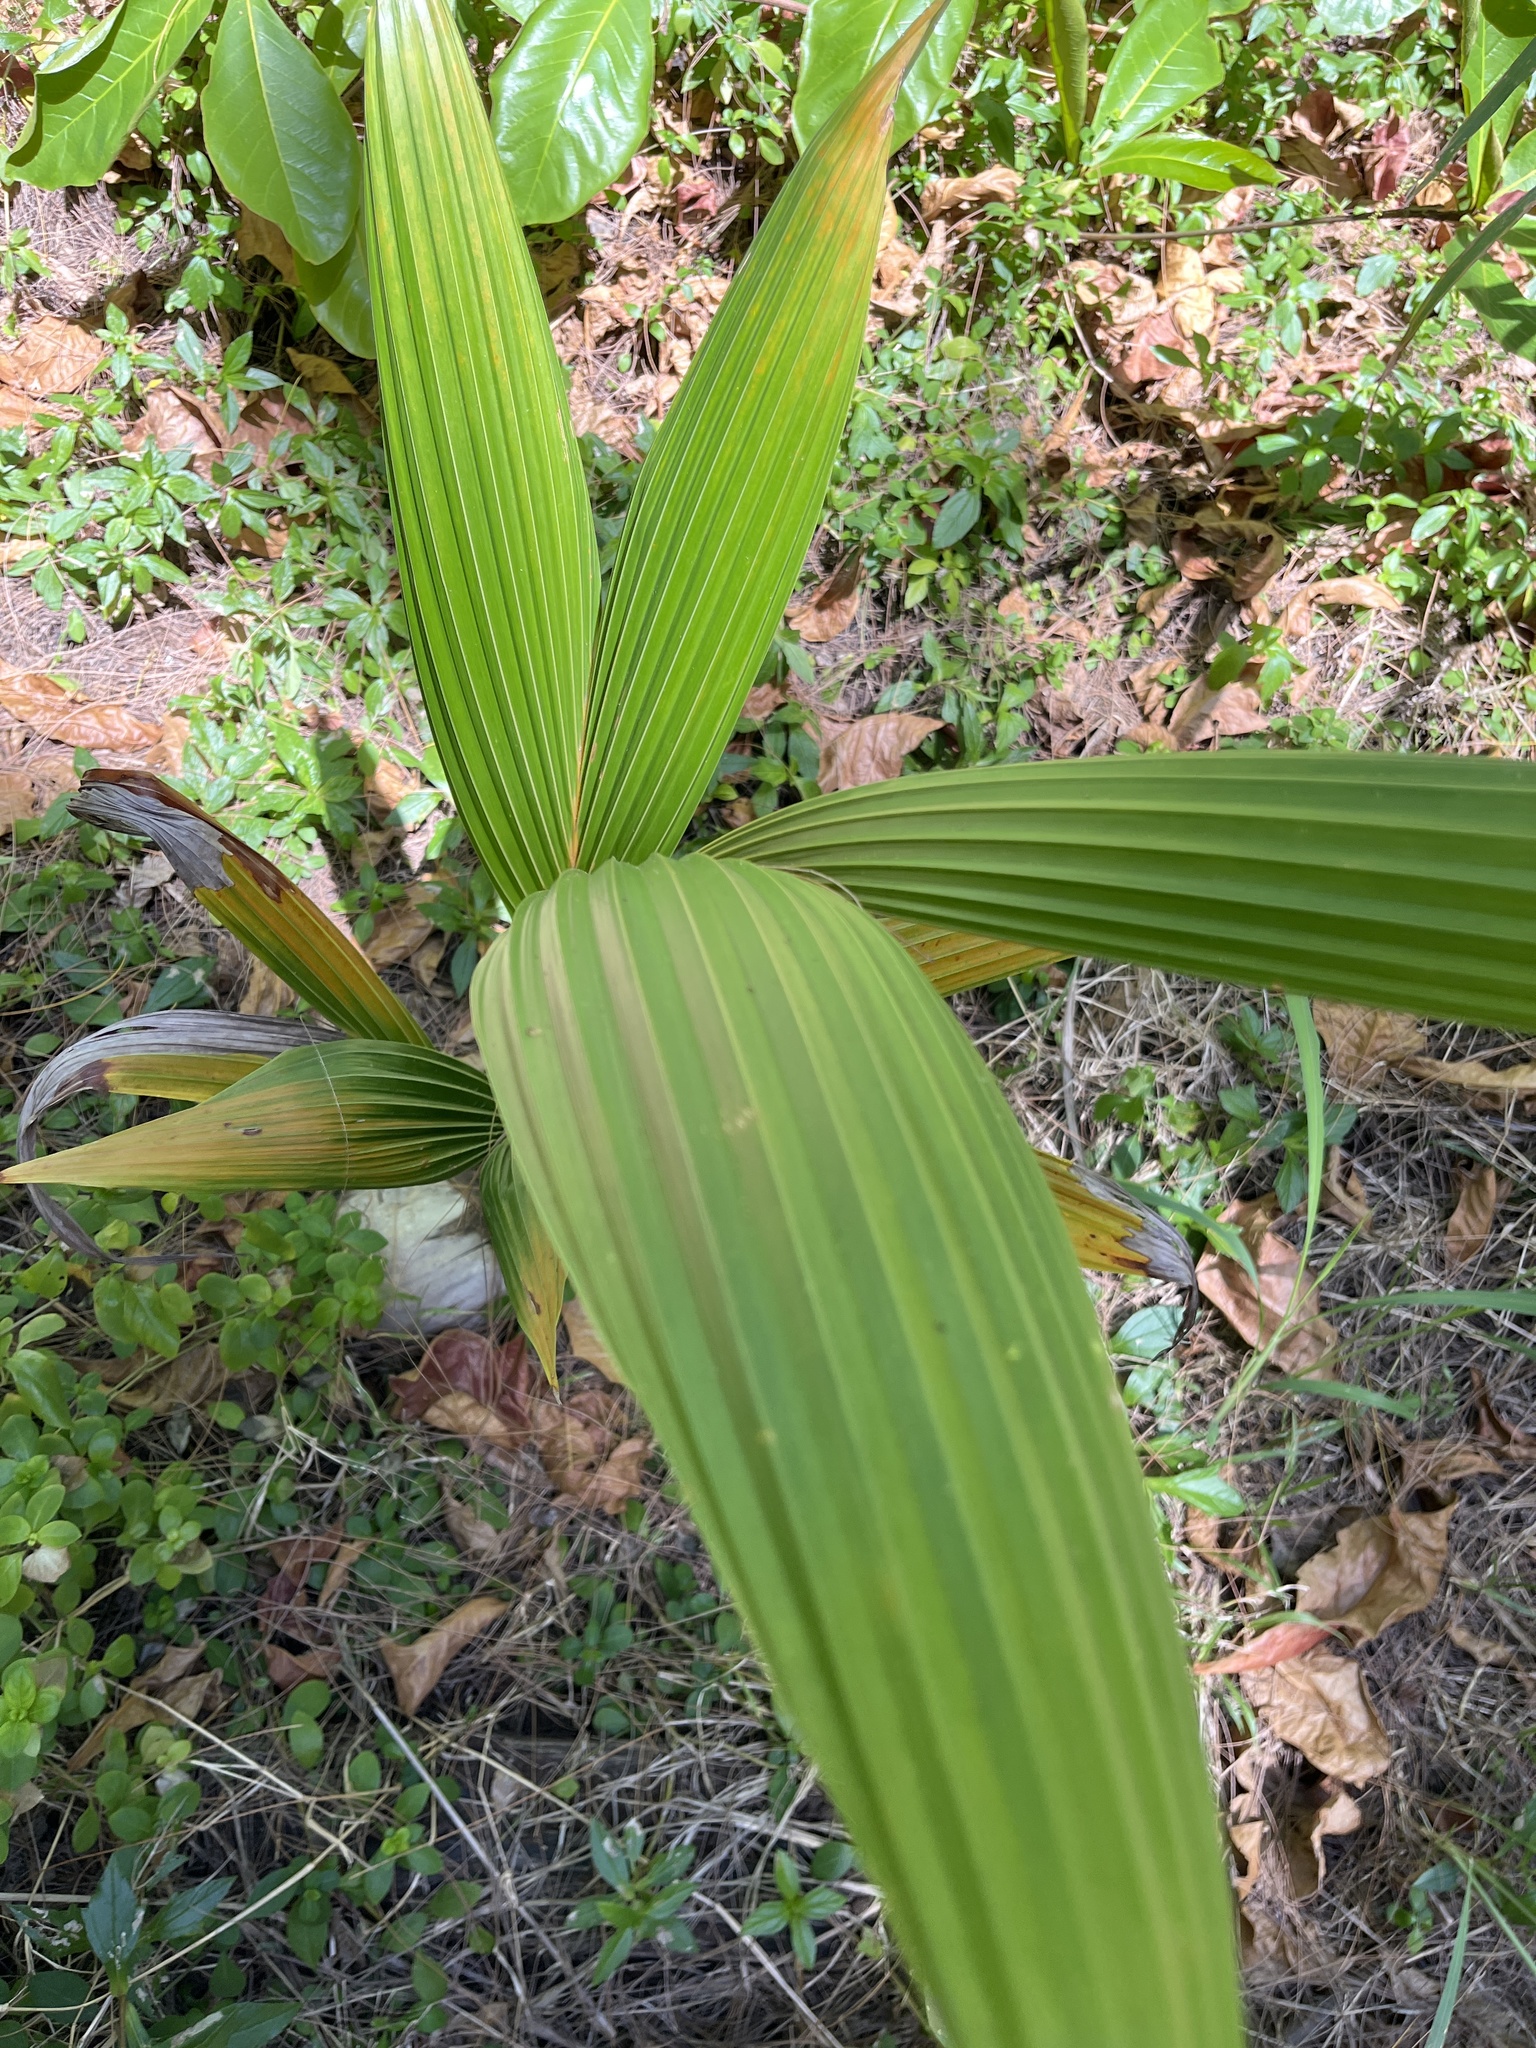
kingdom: Plantae
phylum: Tracheophyta
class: Liliopsida
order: Arecales
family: Arecaceae
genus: Cocos
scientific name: Cocos nucifera
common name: Coconut palm
